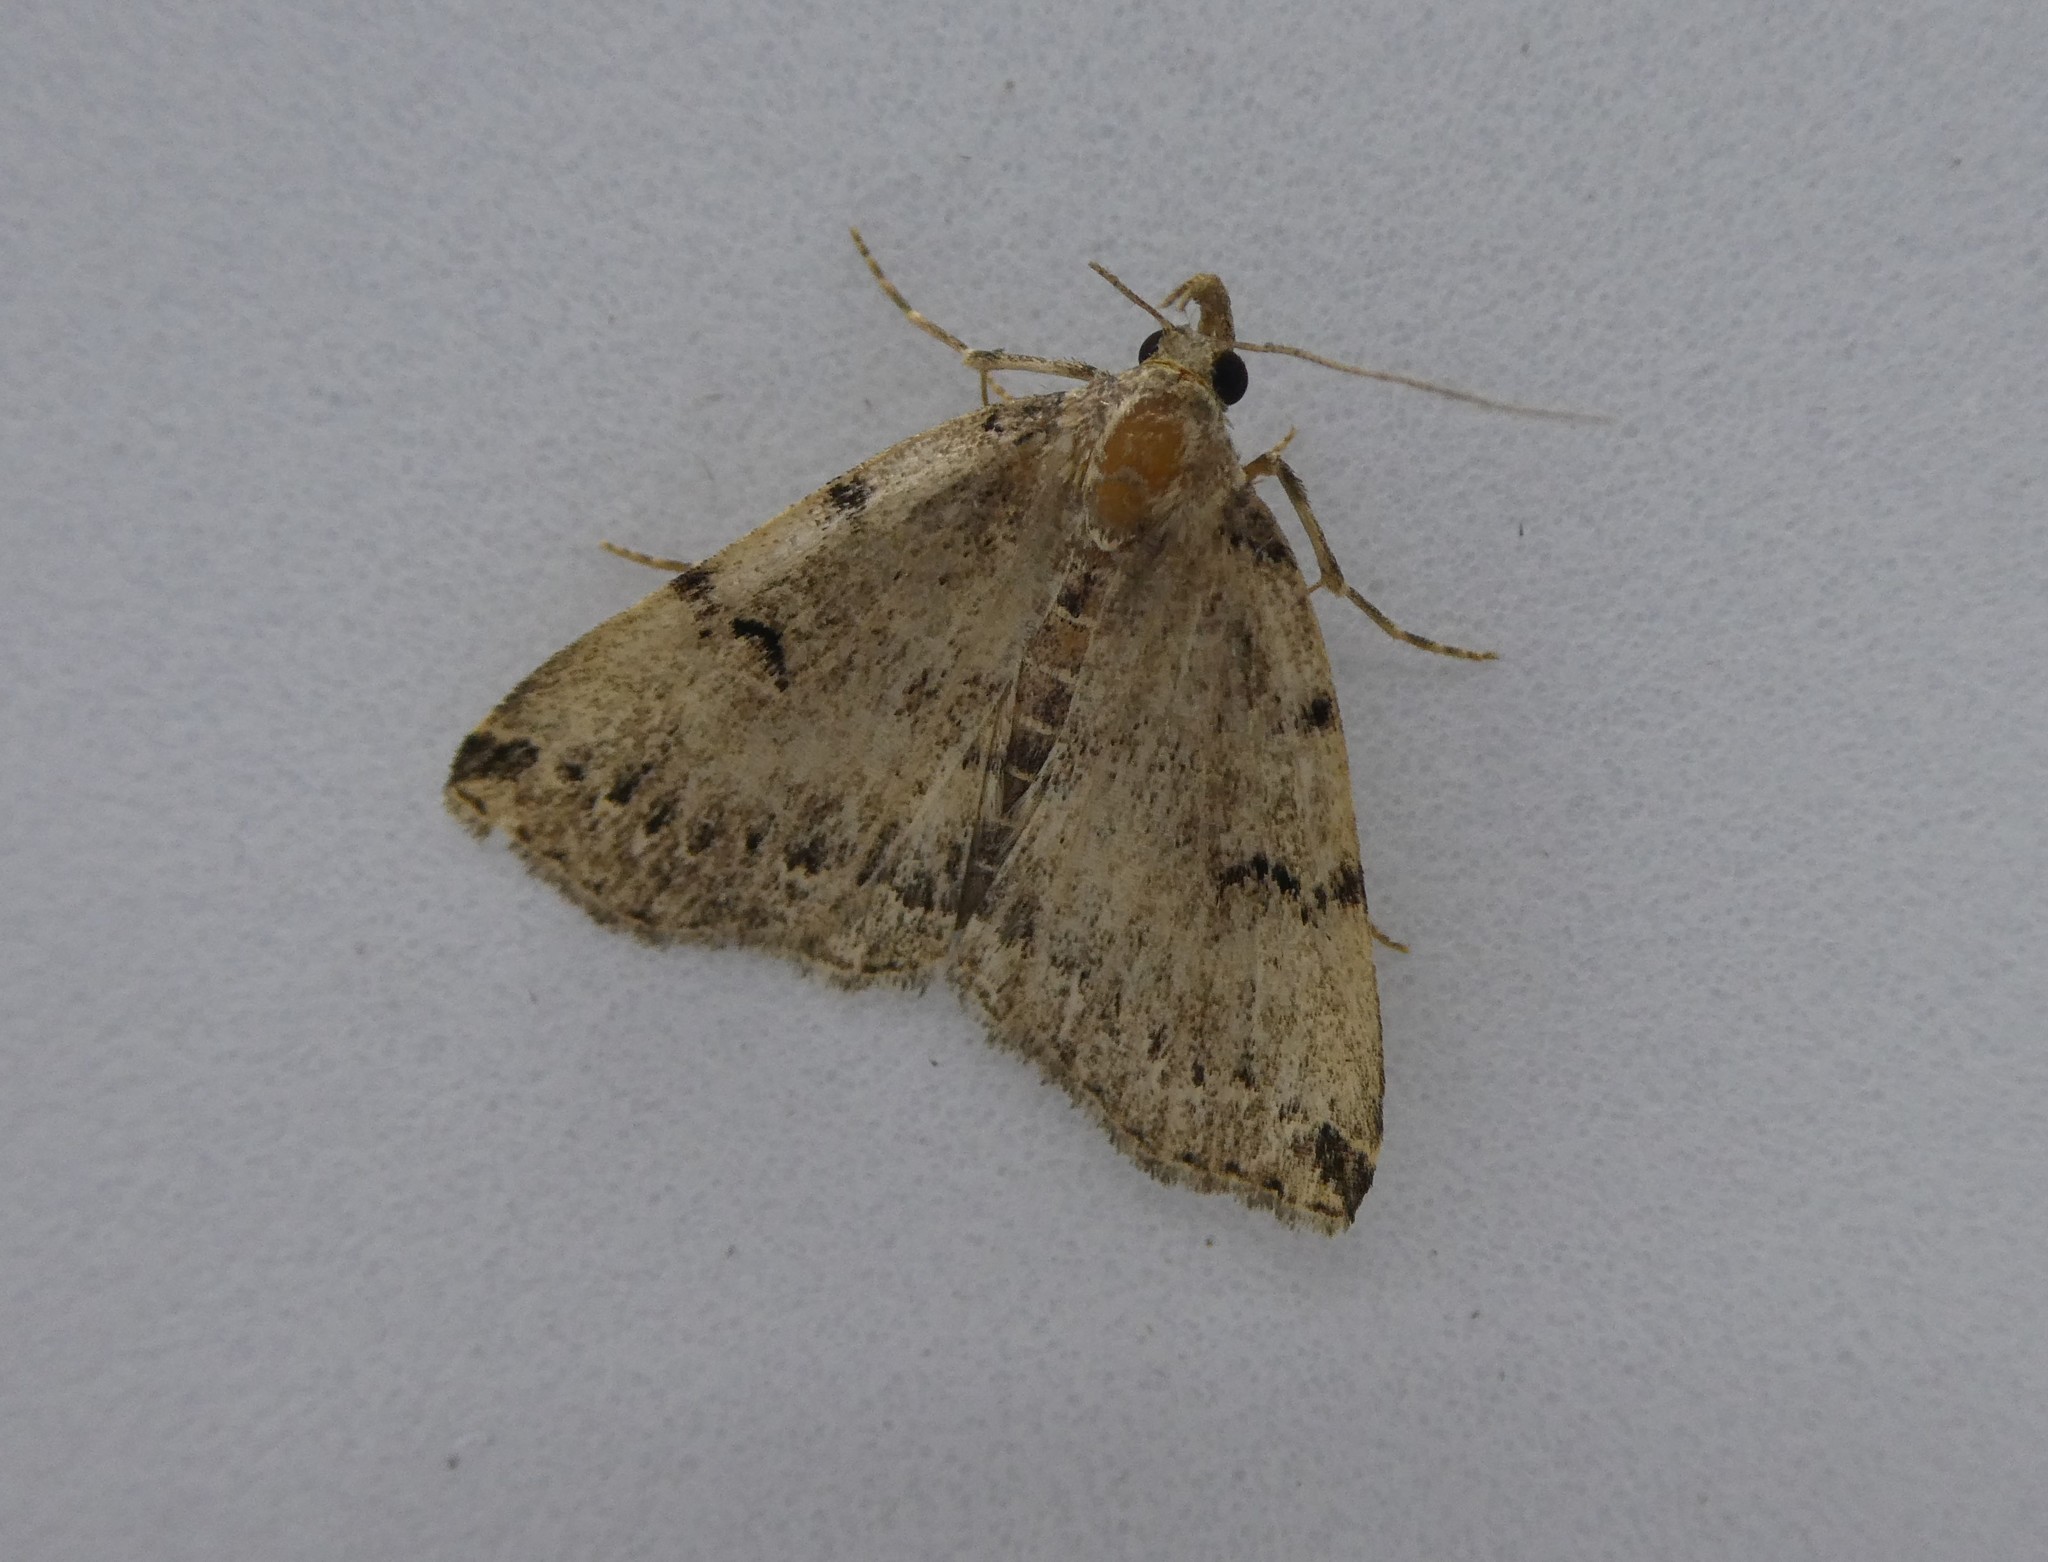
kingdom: Animalia
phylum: Arthropoda
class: Insecta
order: Lepidoptera
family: Erebidae
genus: Zanclognatha
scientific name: Zanclognatha lituralis
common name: Lettered fan-foot
